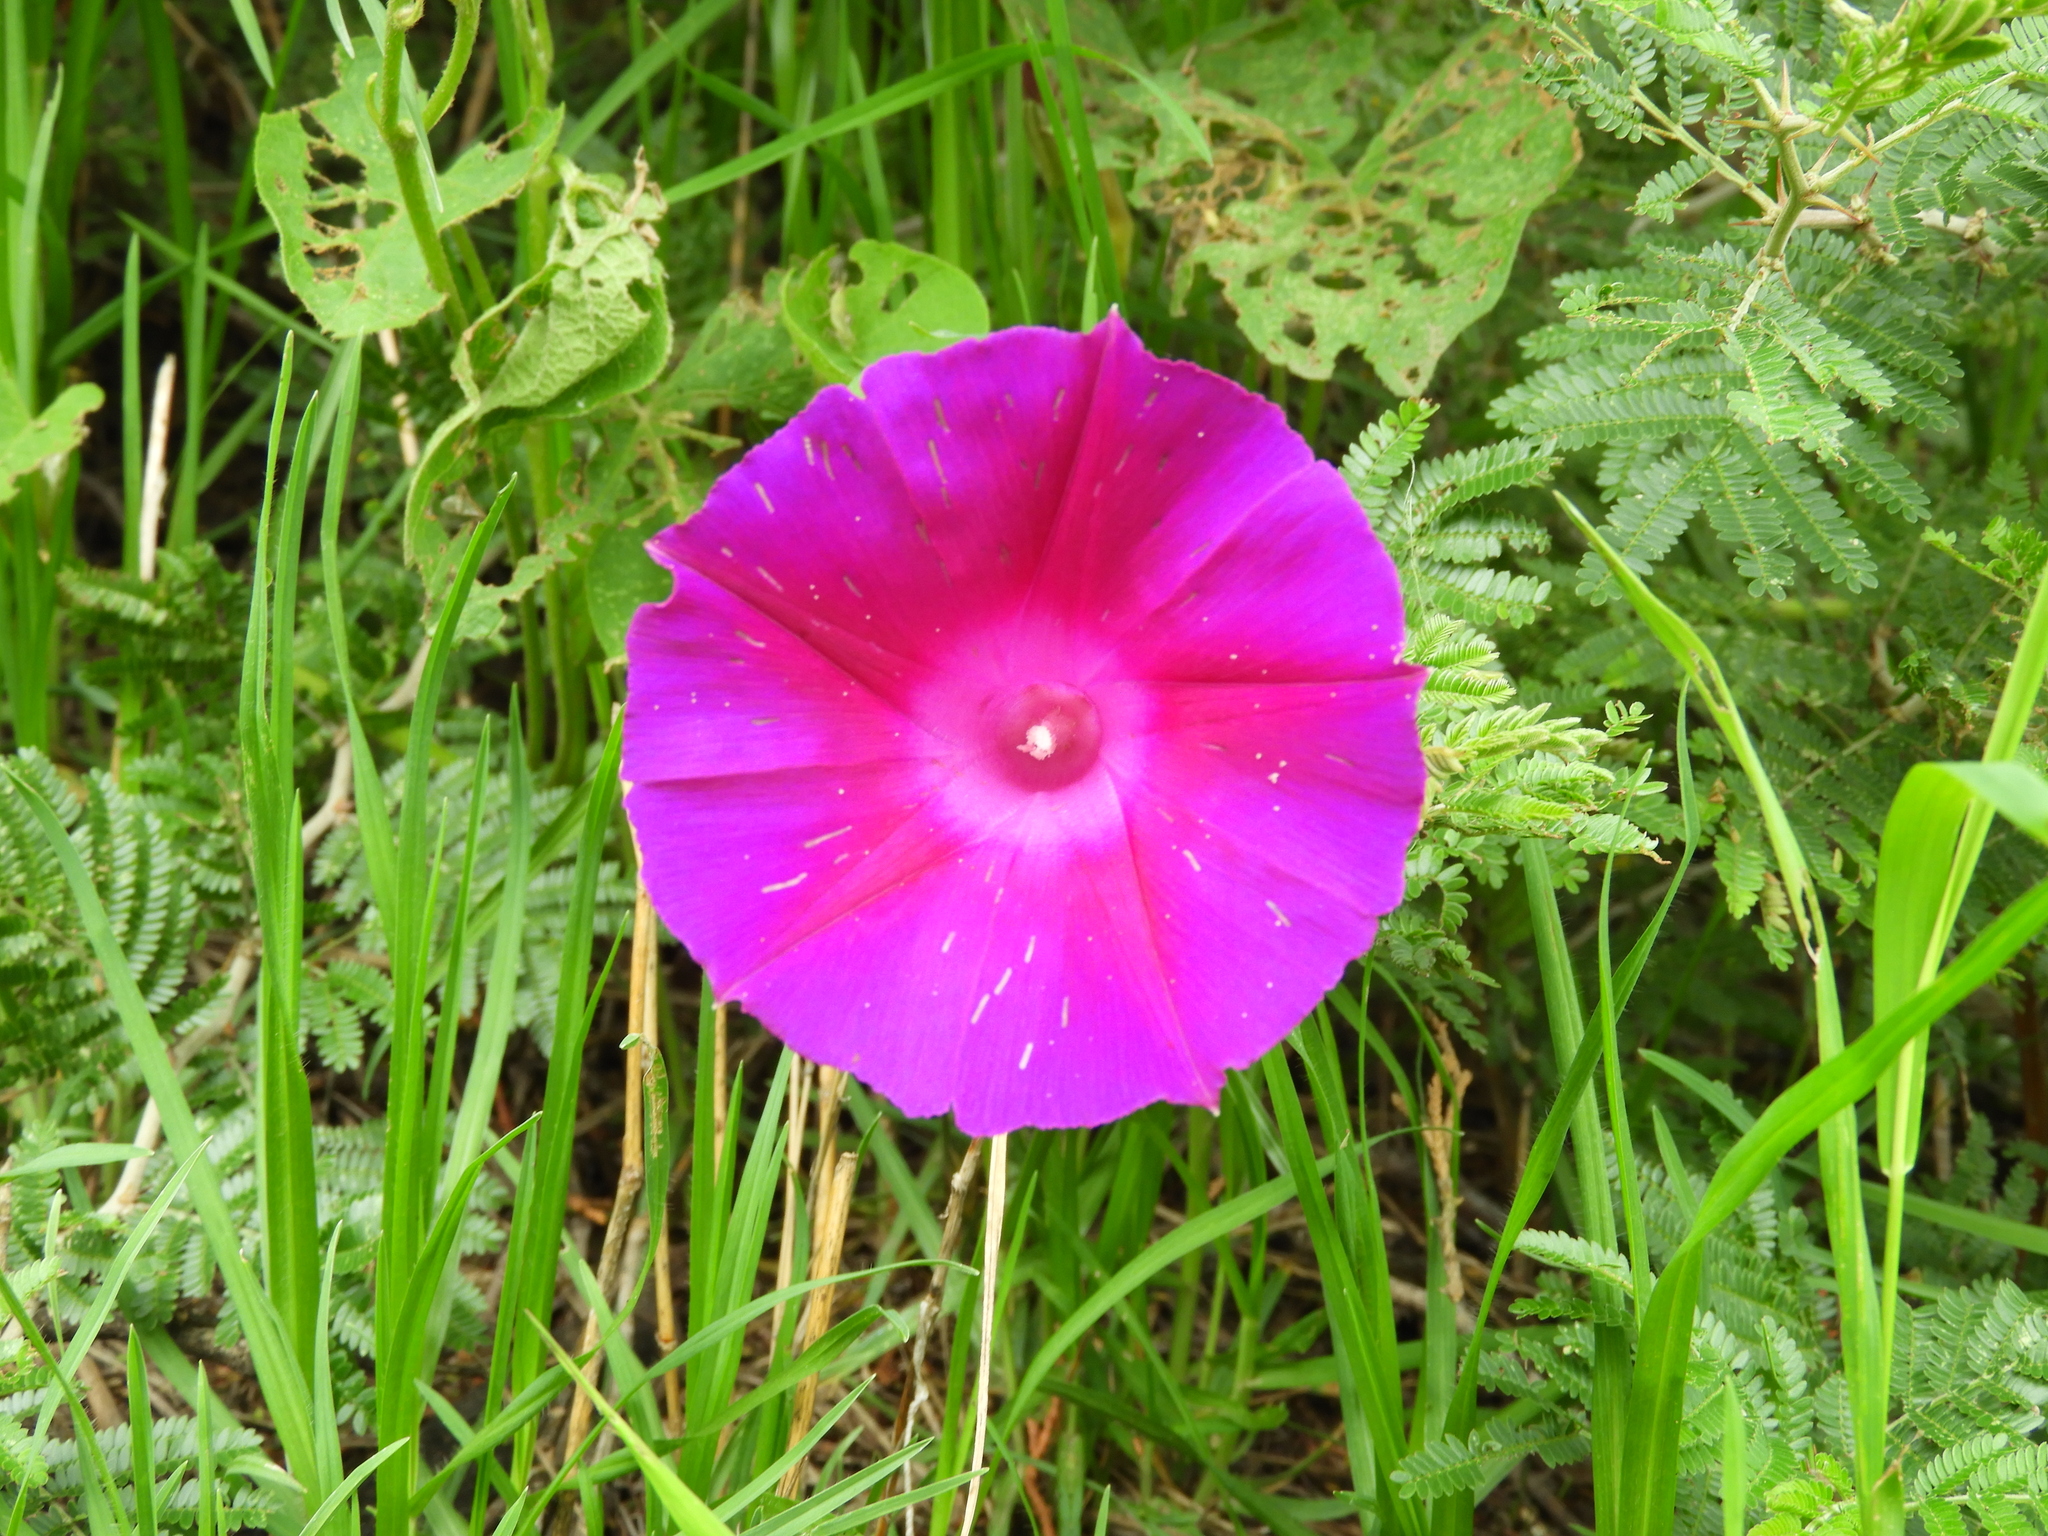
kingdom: Plantae
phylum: Tracheophyta
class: Magnoliopsida
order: Solanales
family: Convolvulaceae
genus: Ipomoea
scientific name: Ipomoea orizabensis
